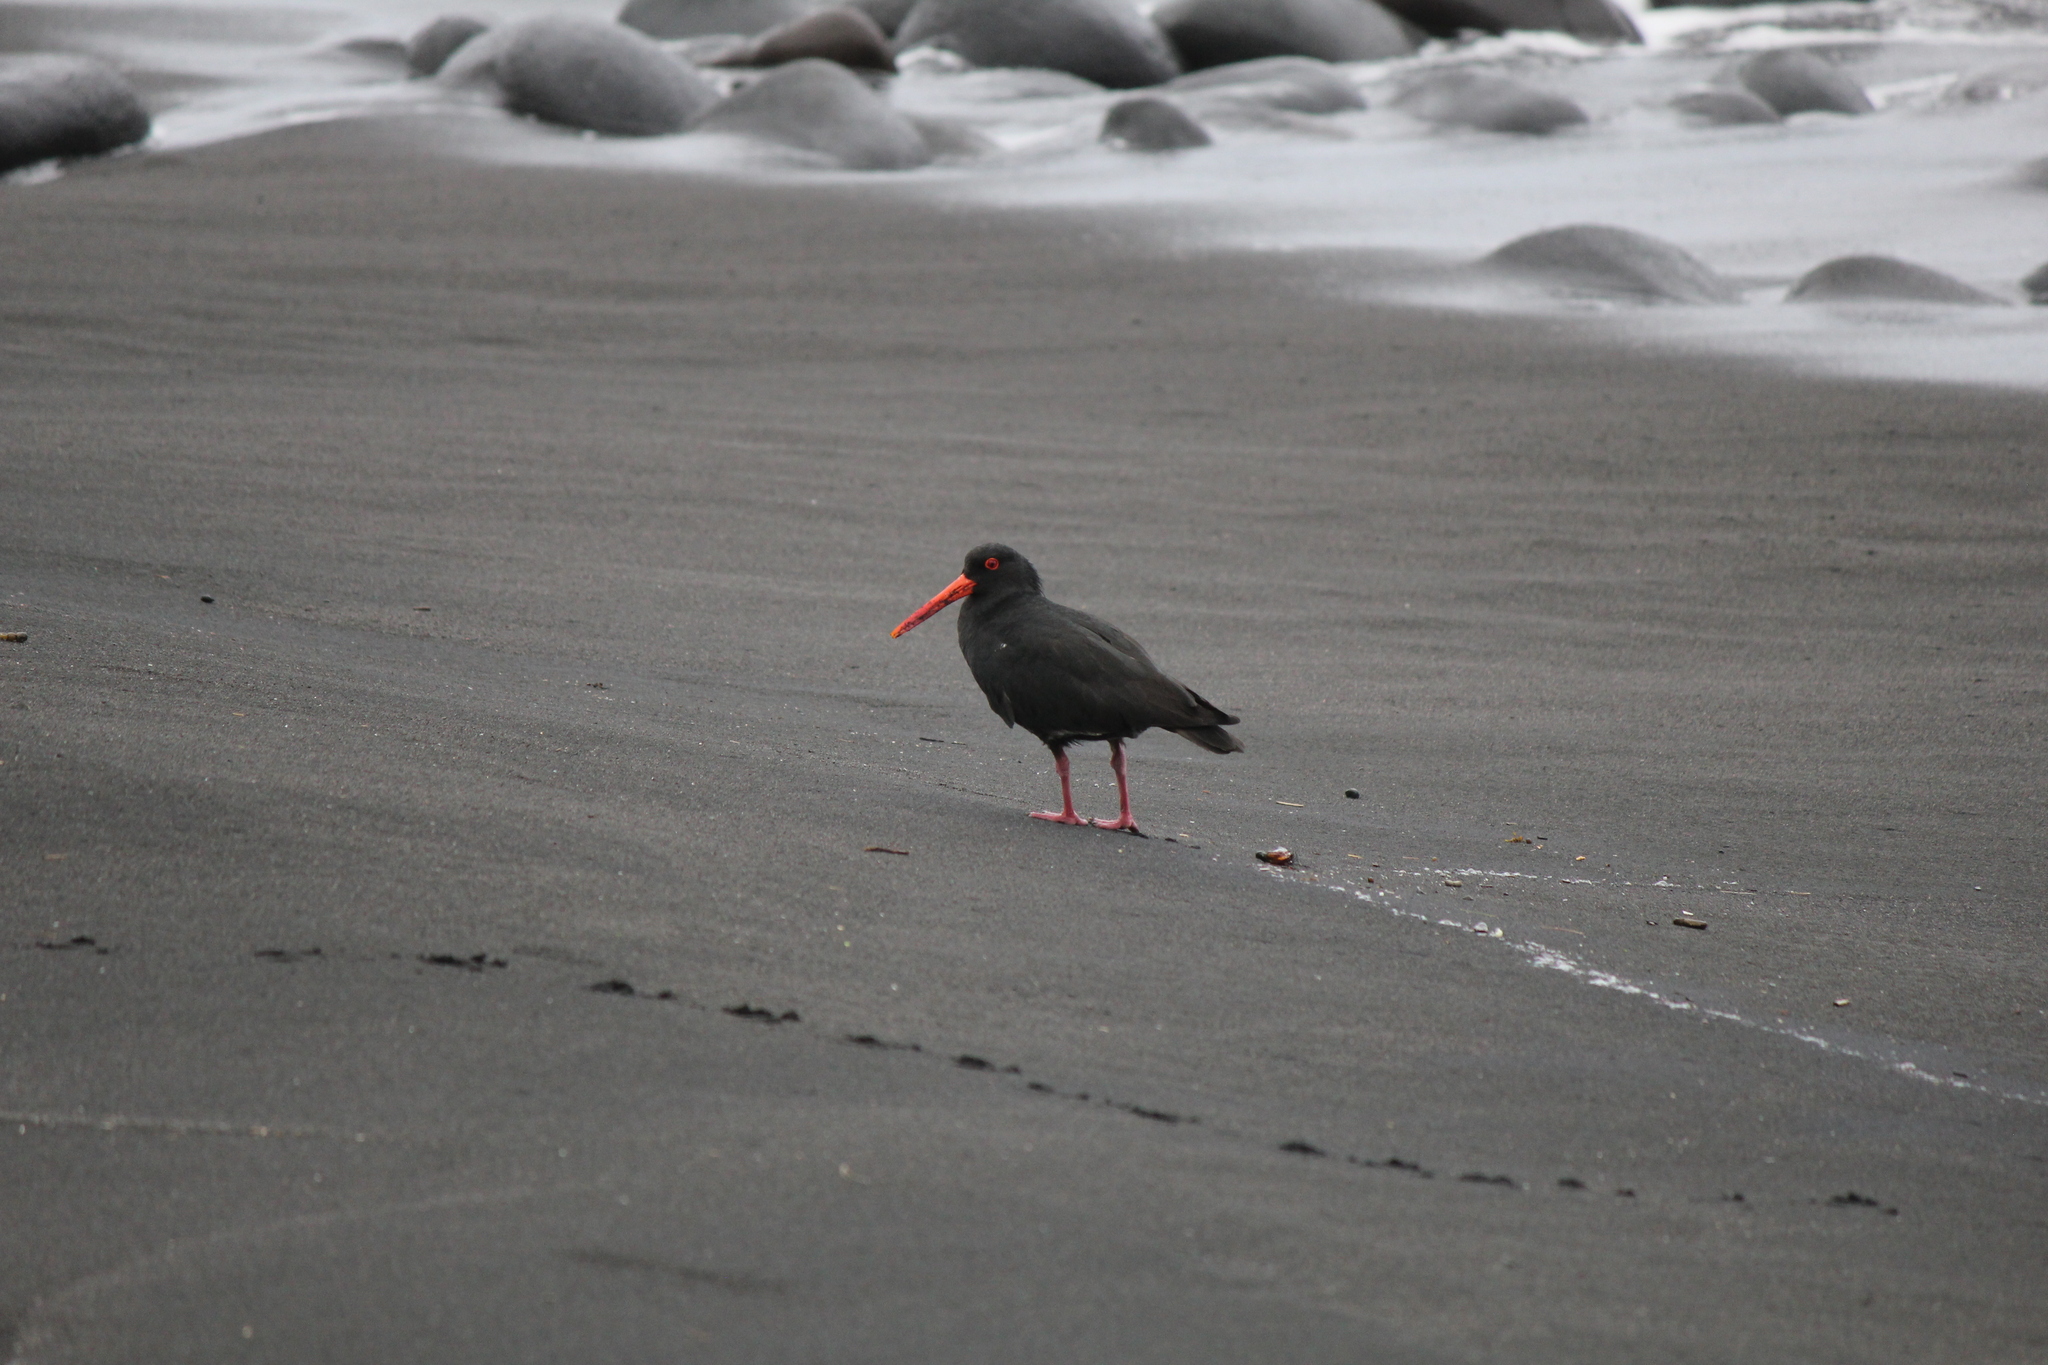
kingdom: Animalia
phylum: Chordata
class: Aves
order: Charadriiformes
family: Haematopodidae
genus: Haematopus
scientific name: Haematopus unicolor
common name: Variable oystercatcher
